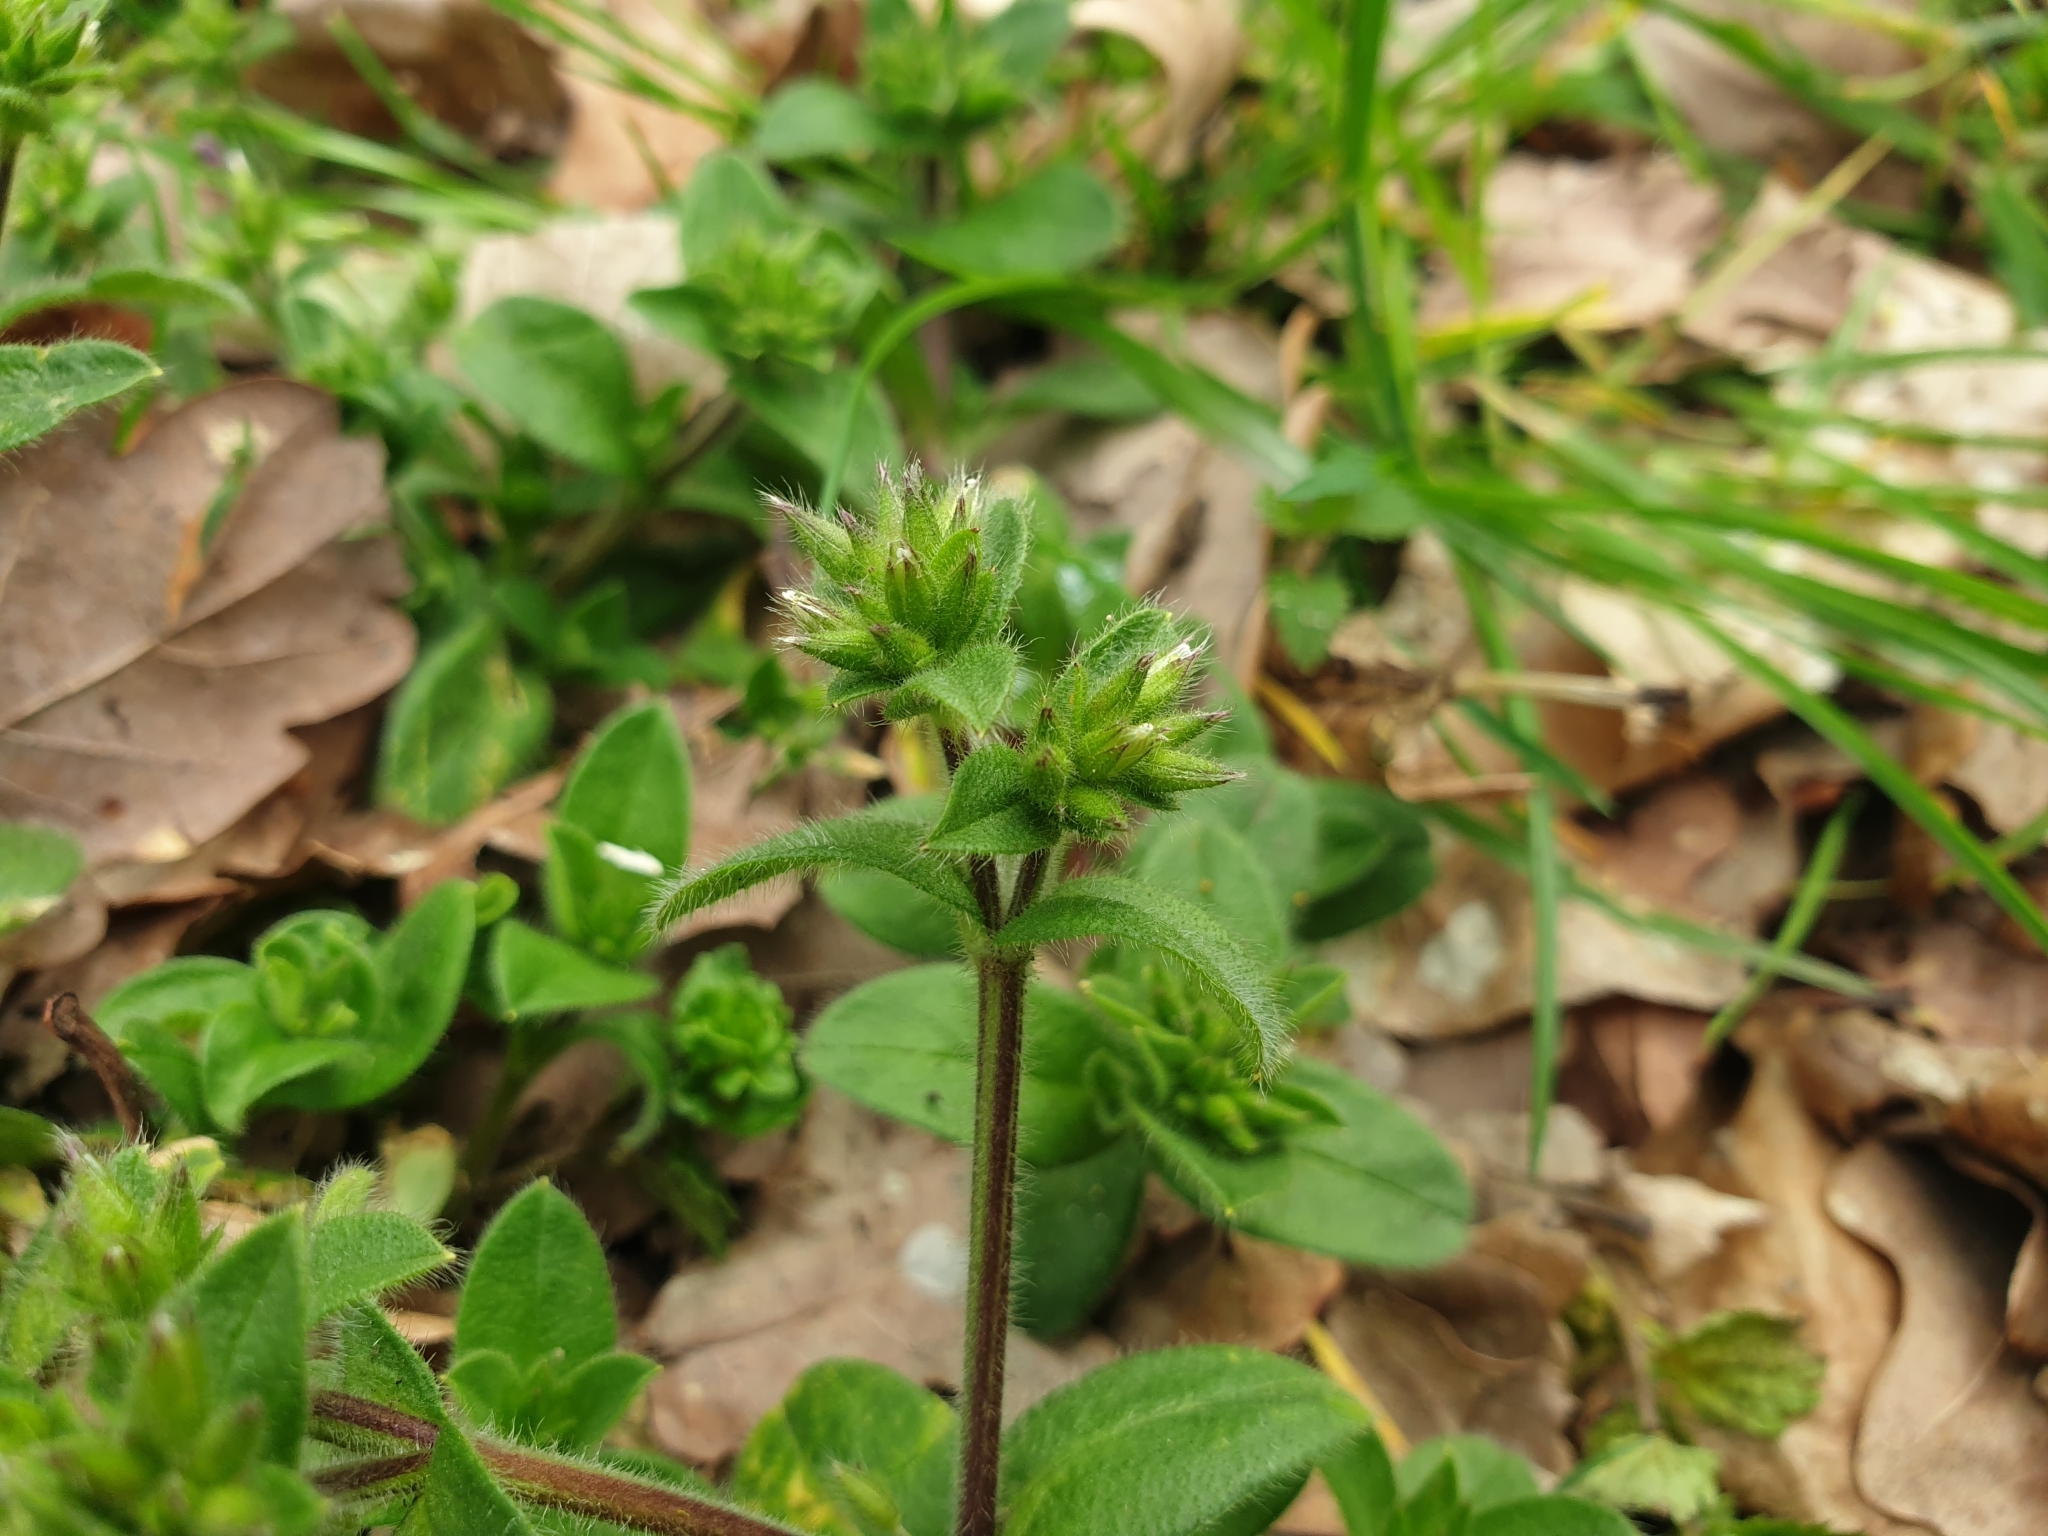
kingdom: Plantae
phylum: Tracheophyta
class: Magnoliopsida
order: Caryophyllales
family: Caryophyllaceae
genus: Cerastium
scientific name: Cerastium glomeratum
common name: Sticky chickweed
